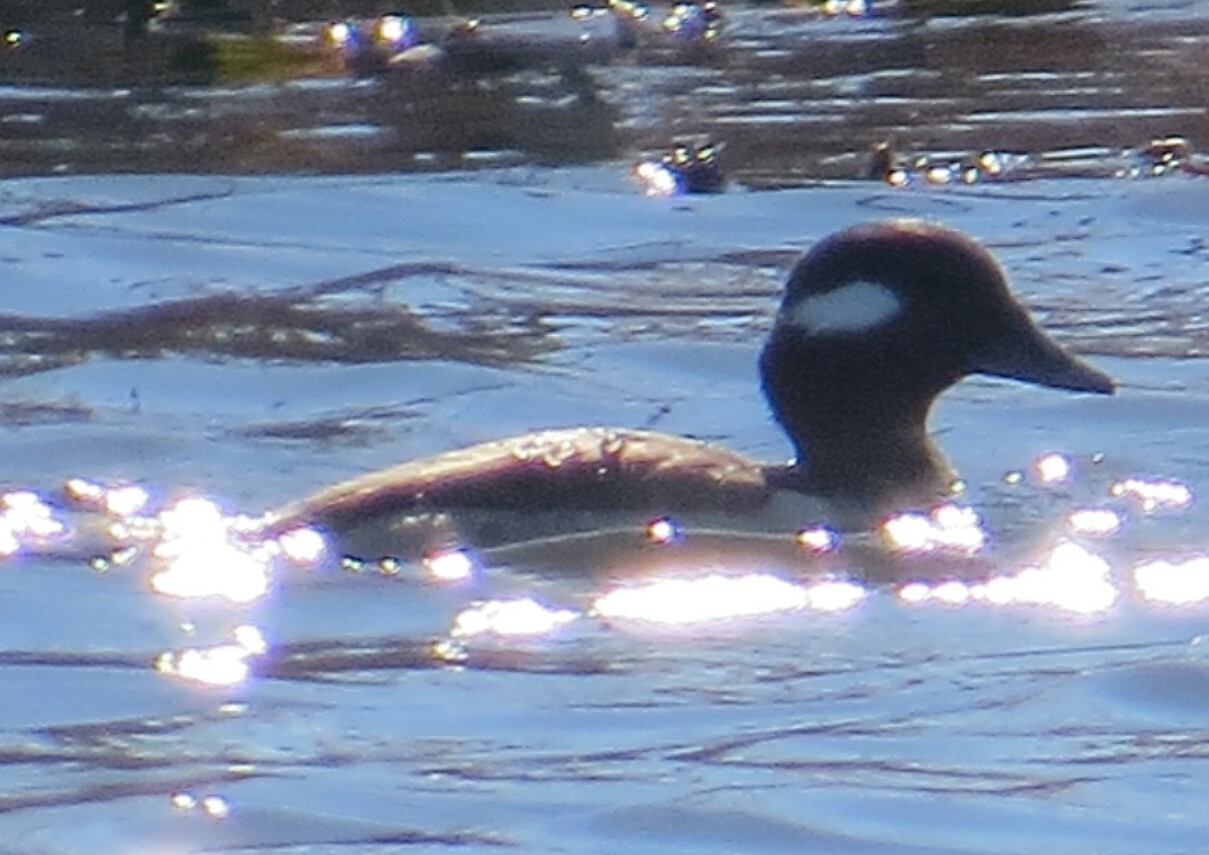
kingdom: Animalia
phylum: Chordata
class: Aves
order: Anseriformes
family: Anatidae
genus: Bucephala
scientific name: Bucephala albeola
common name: Bufflehead
